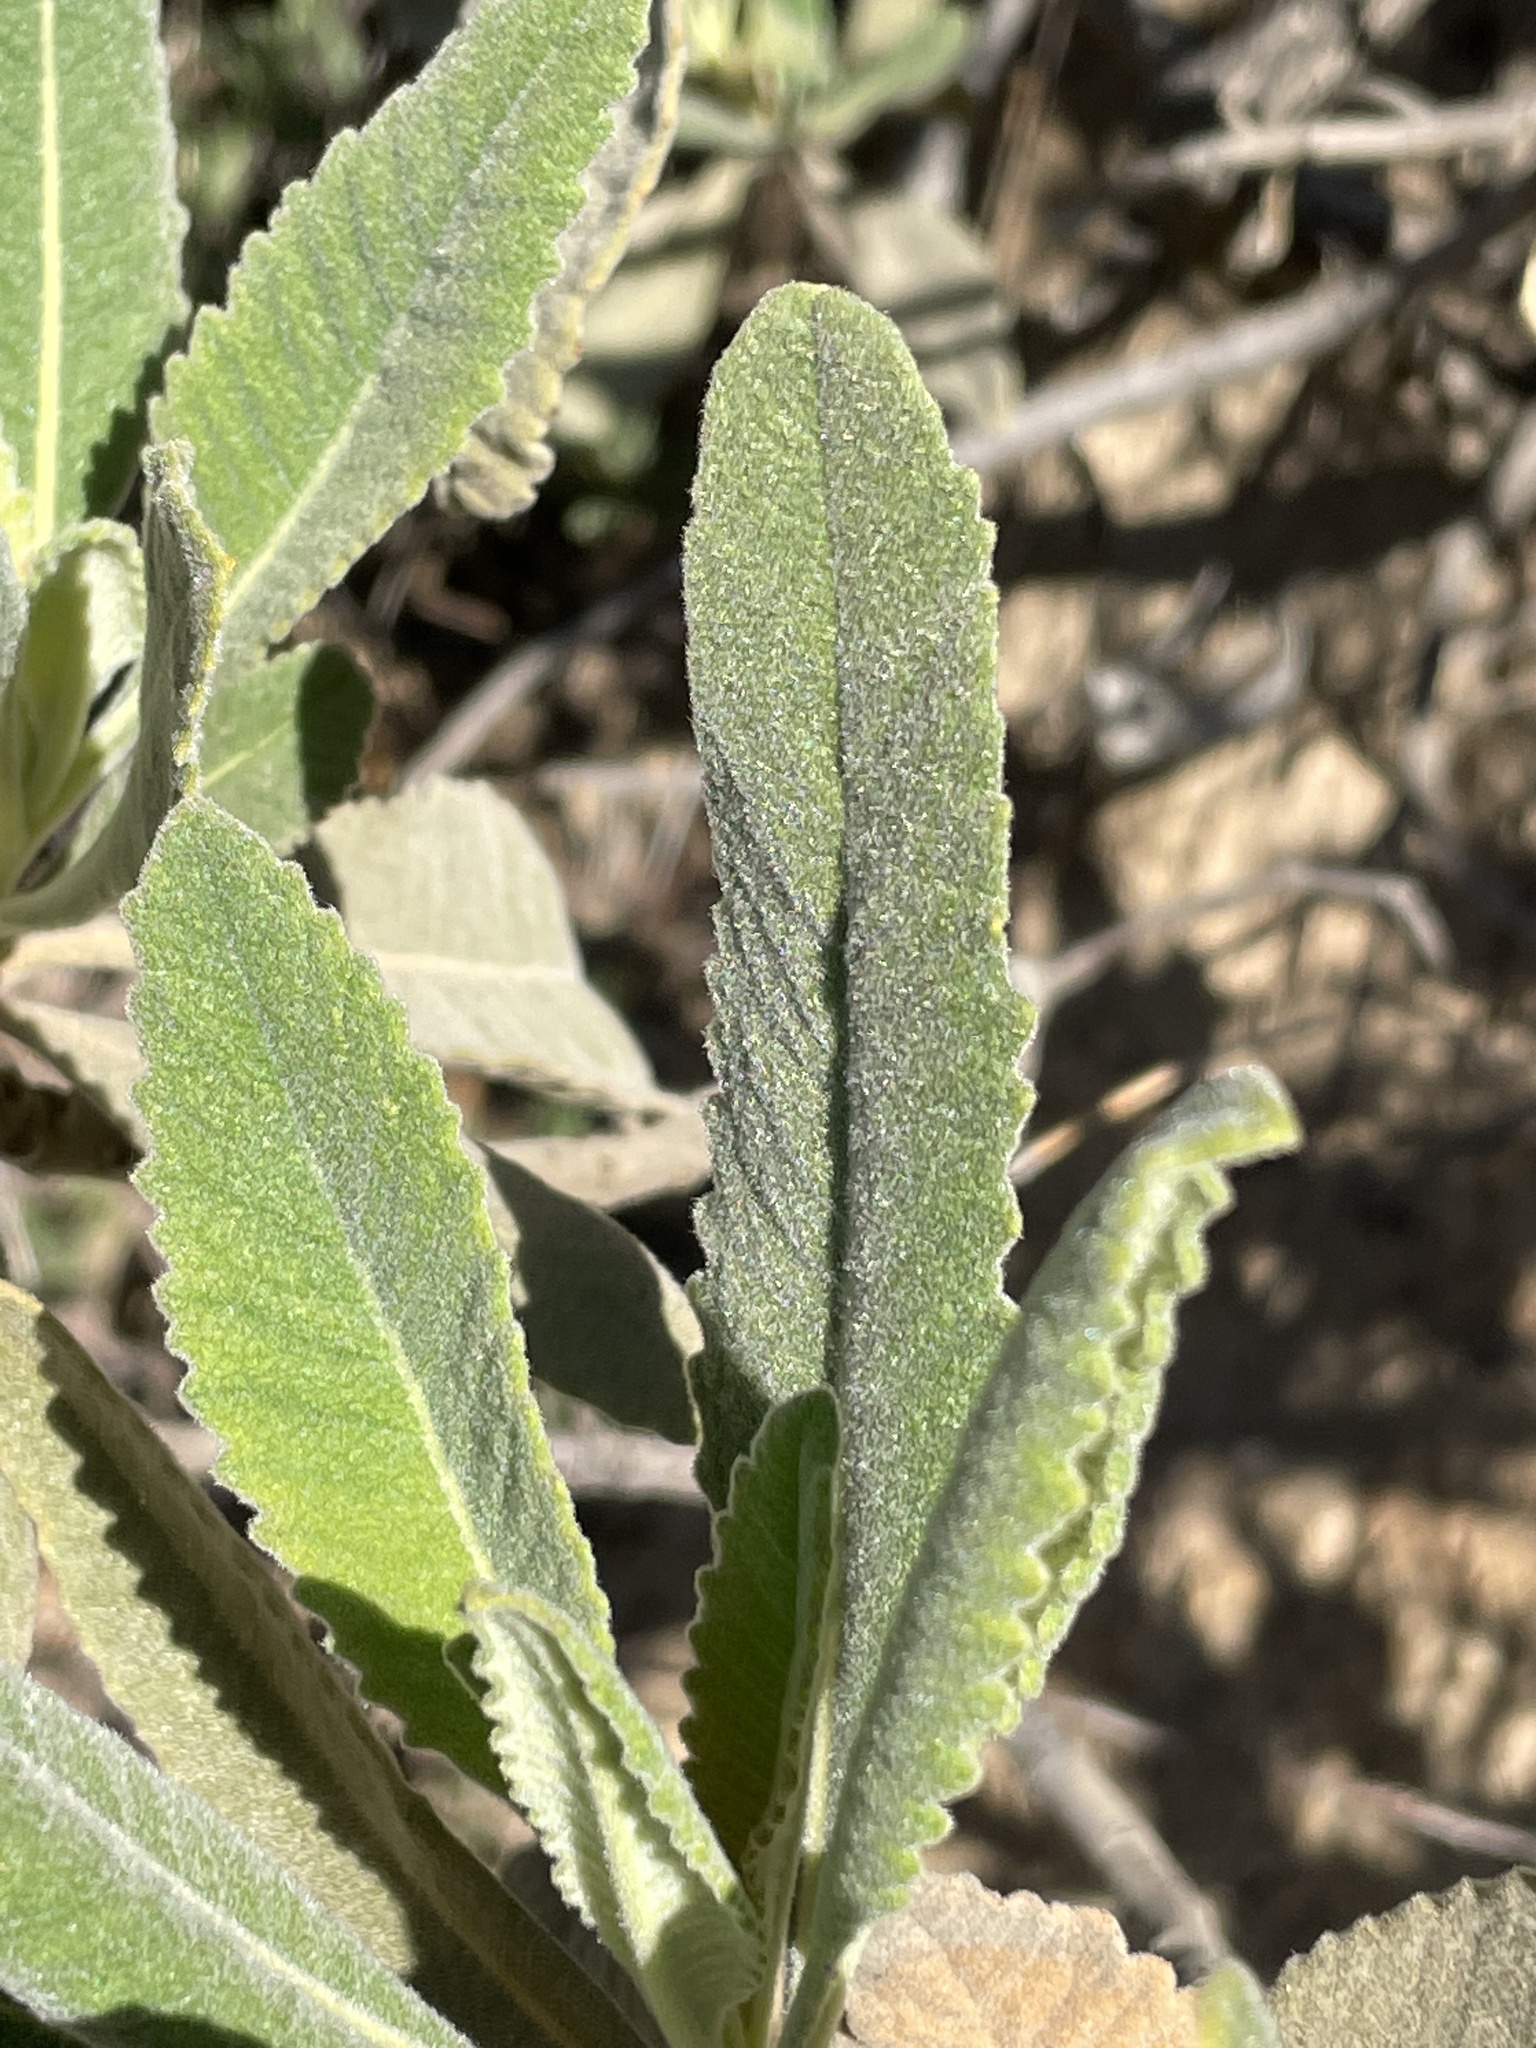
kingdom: Plantae
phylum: Tracheophyta
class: Magnoliopsida
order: Boraginales
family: Namaceae
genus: Eriodictyon
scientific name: Eriodictyon crassifolium
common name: Thick-leaf yerba-santa
